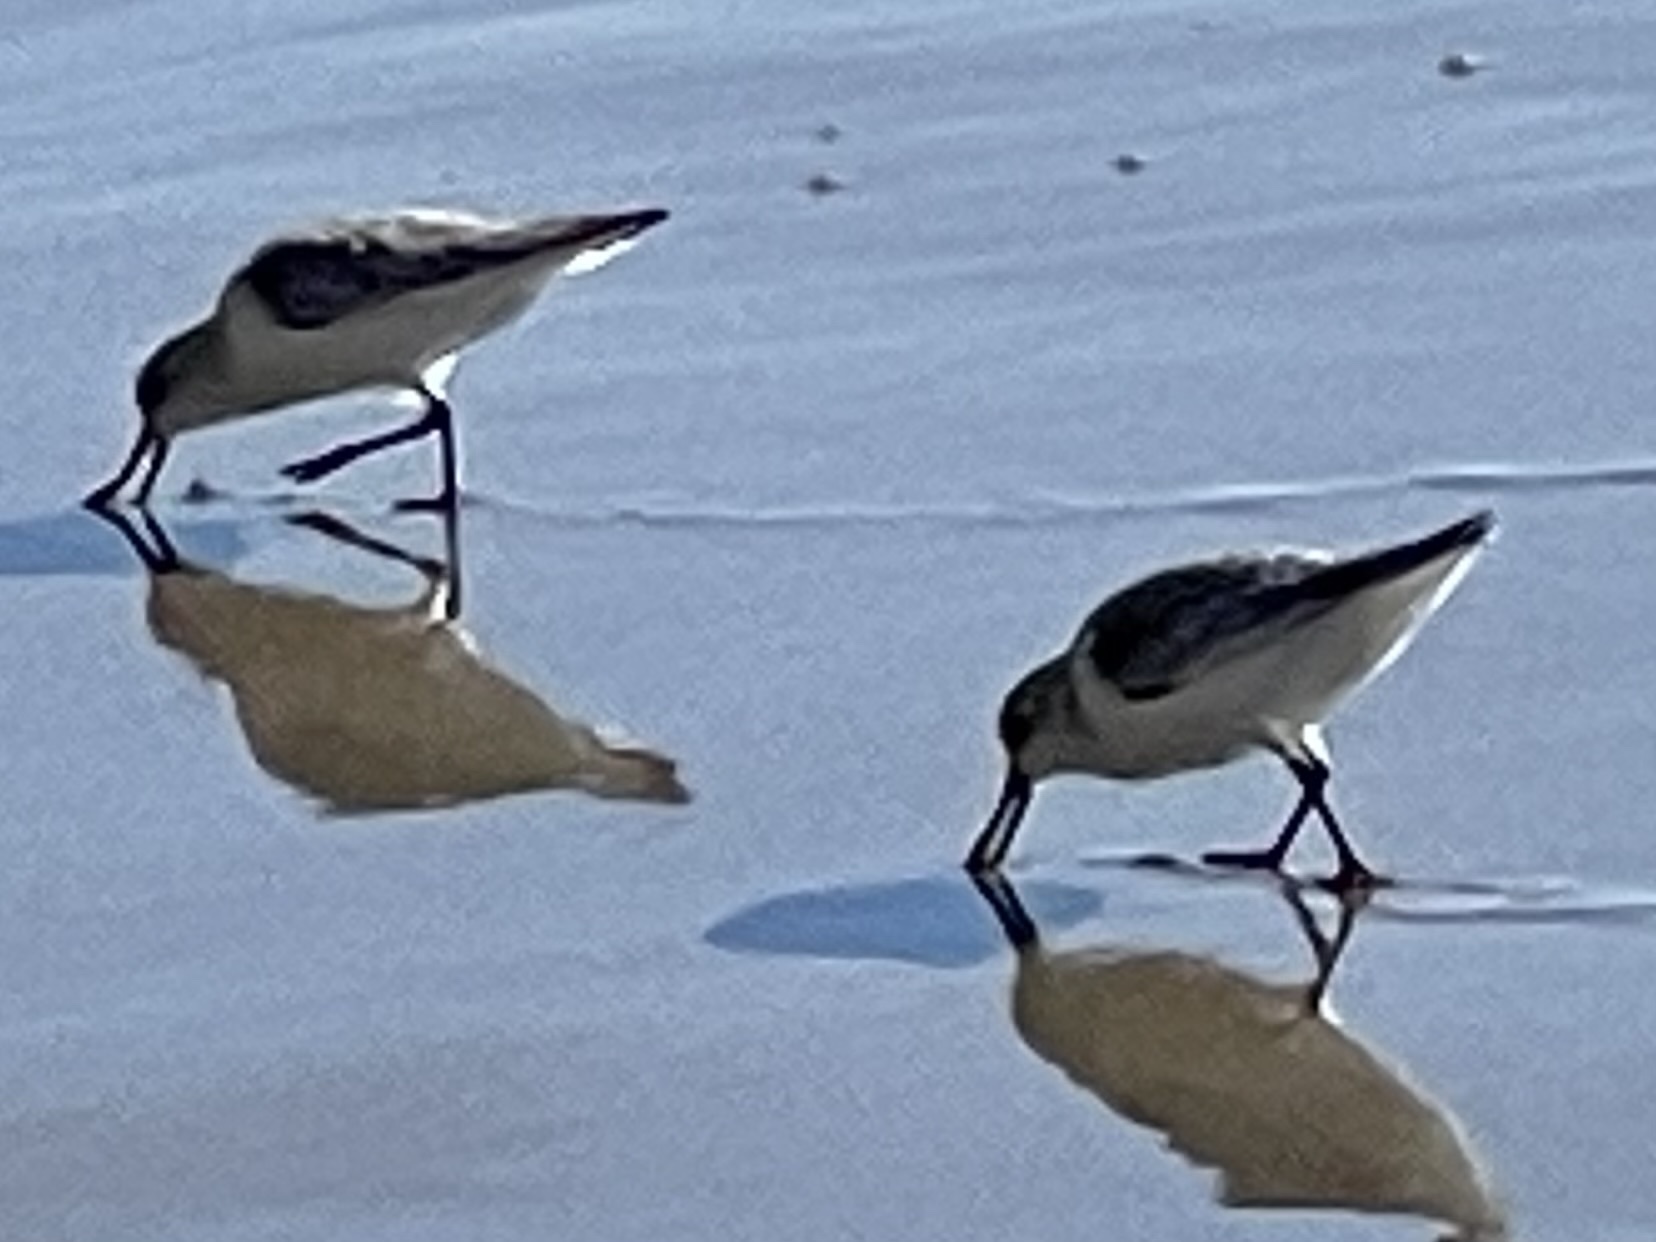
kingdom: Animalia
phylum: Chordata
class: Aves
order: Charadriiformes
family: Scolopacidae
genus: Calidris
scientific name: Calidris alba
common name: Sanderling
